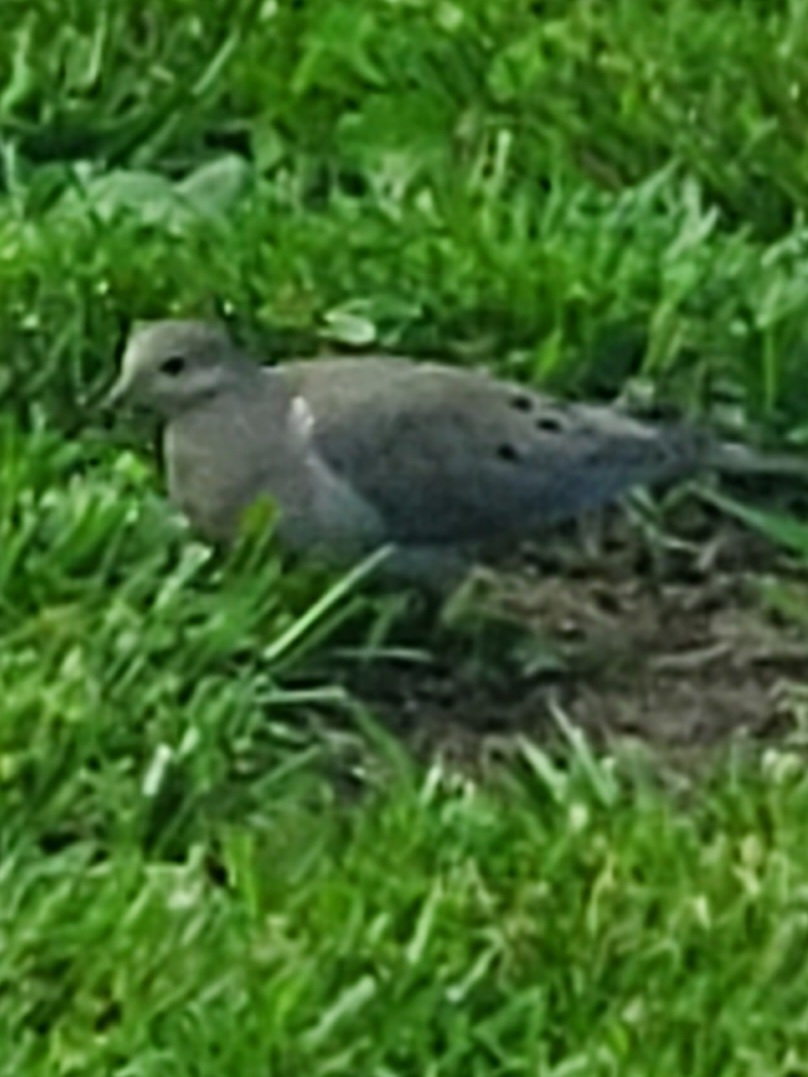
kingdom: Animalia
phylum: Chordata
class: Aves
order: Columbiformes
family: Columbidae
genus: Zenaida
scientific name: Zenaida macroura
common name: Mourning dove
